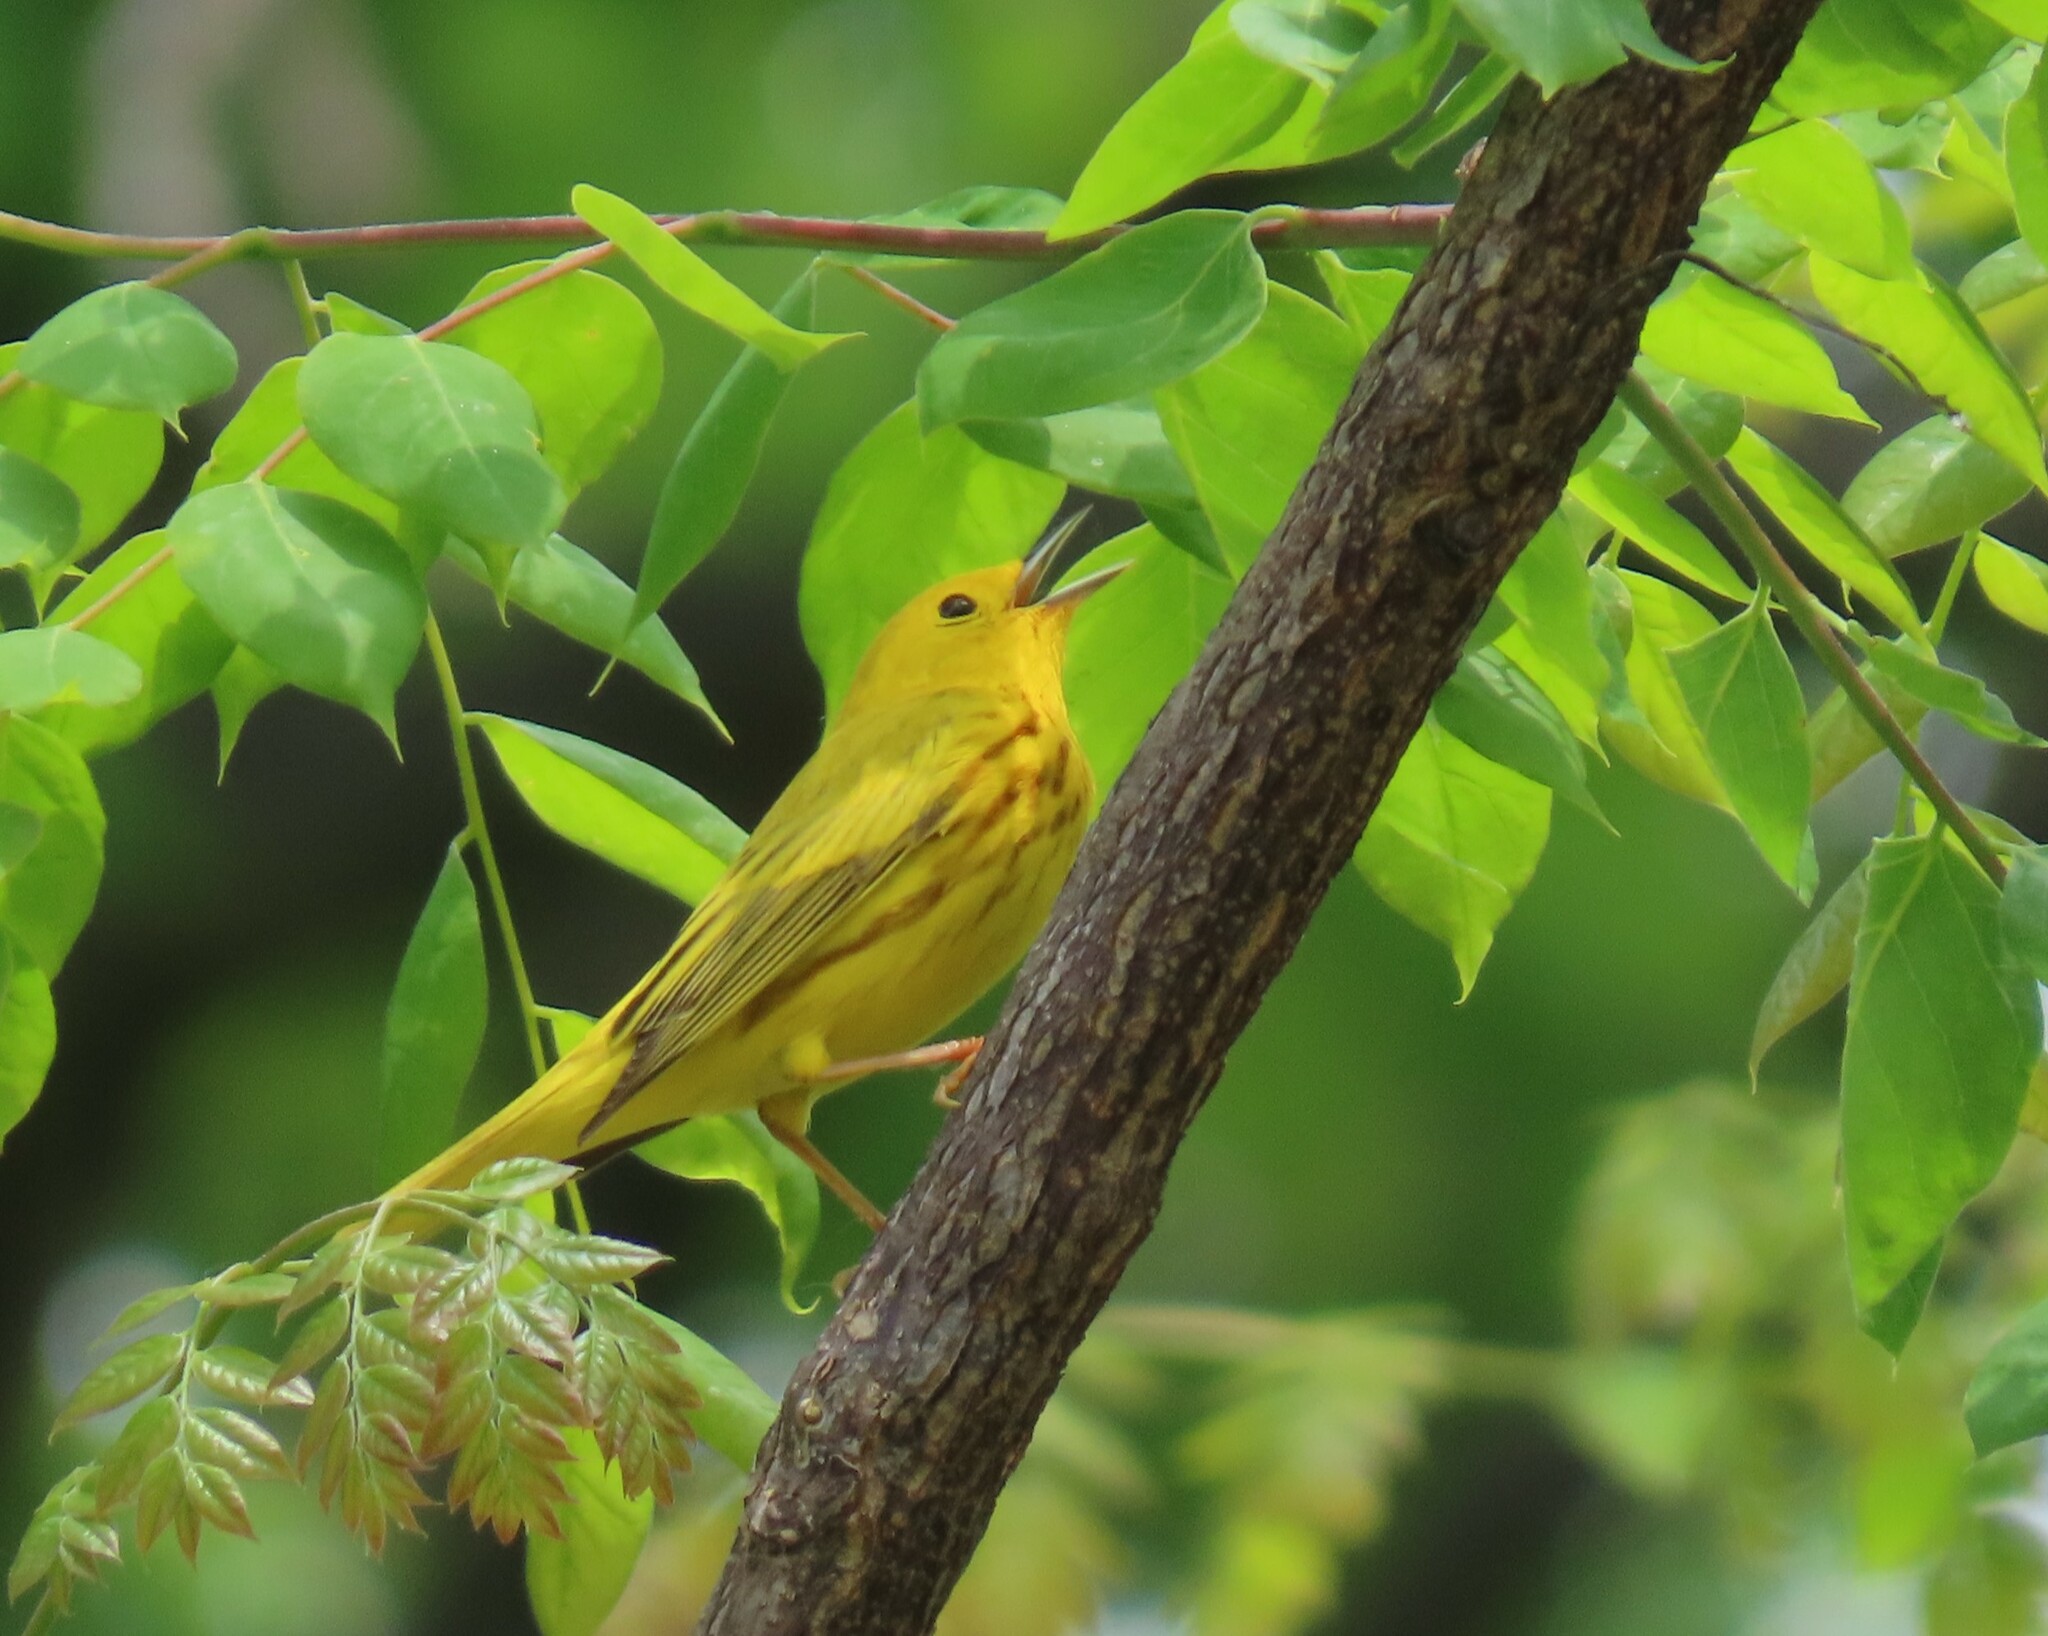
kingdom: Animalia
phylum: Chordata
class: Aves
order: Passeriformes
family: Parulidae
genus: Setophaga
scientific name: Setophaga petechia
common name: Yellow warbler
